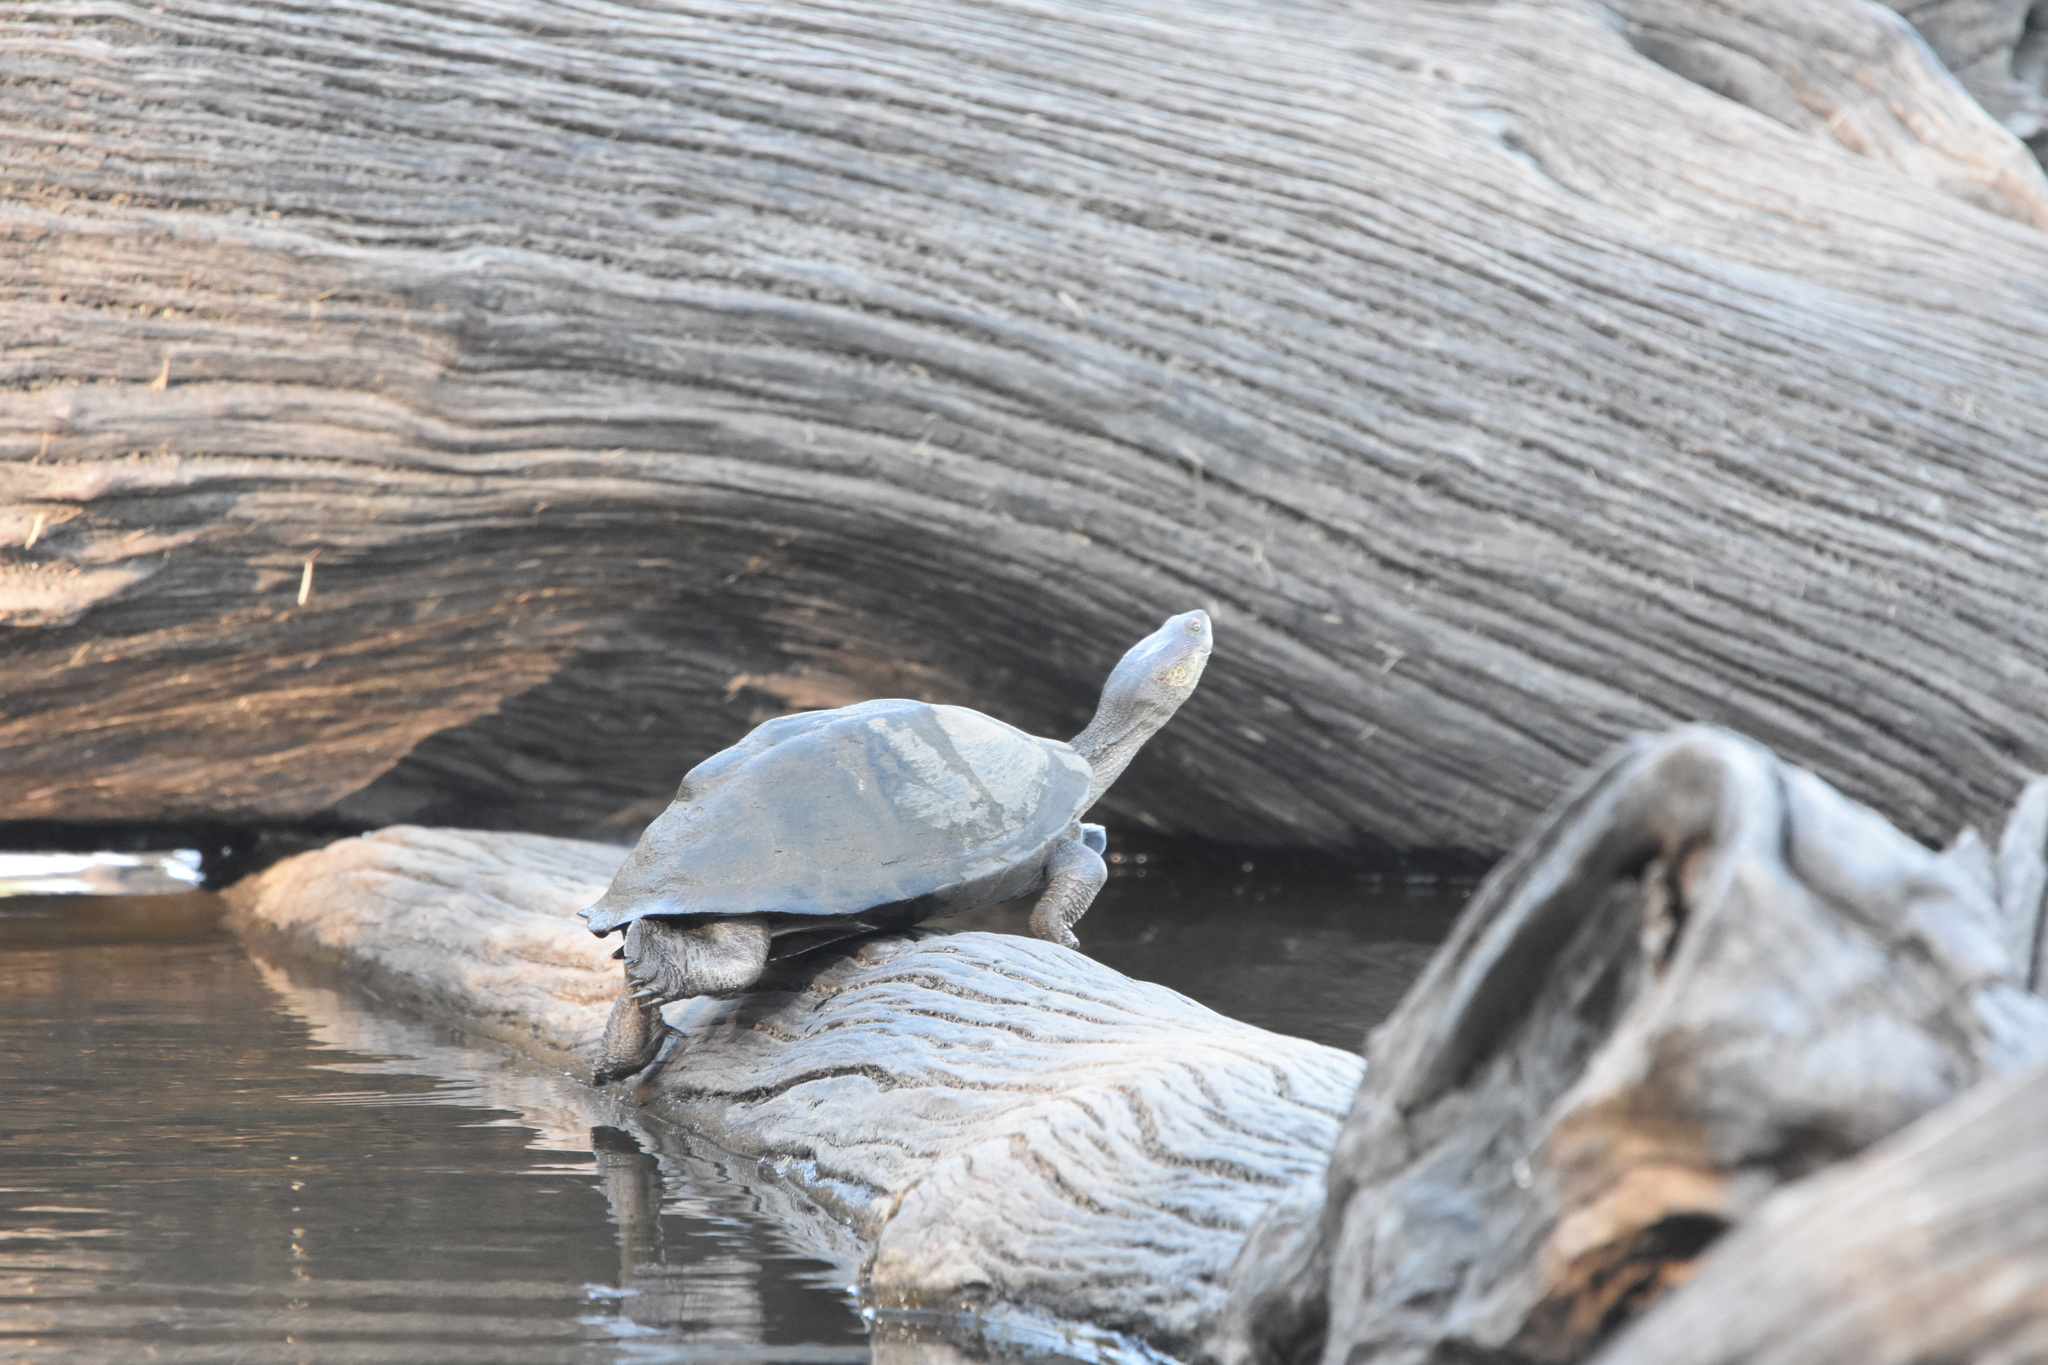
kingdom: Animalia
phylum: Chordata
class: Testudines
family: Pelomedusidae
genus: Pelusios
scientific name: Pelusios sinuatus
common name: Serrated hinged terrapin
